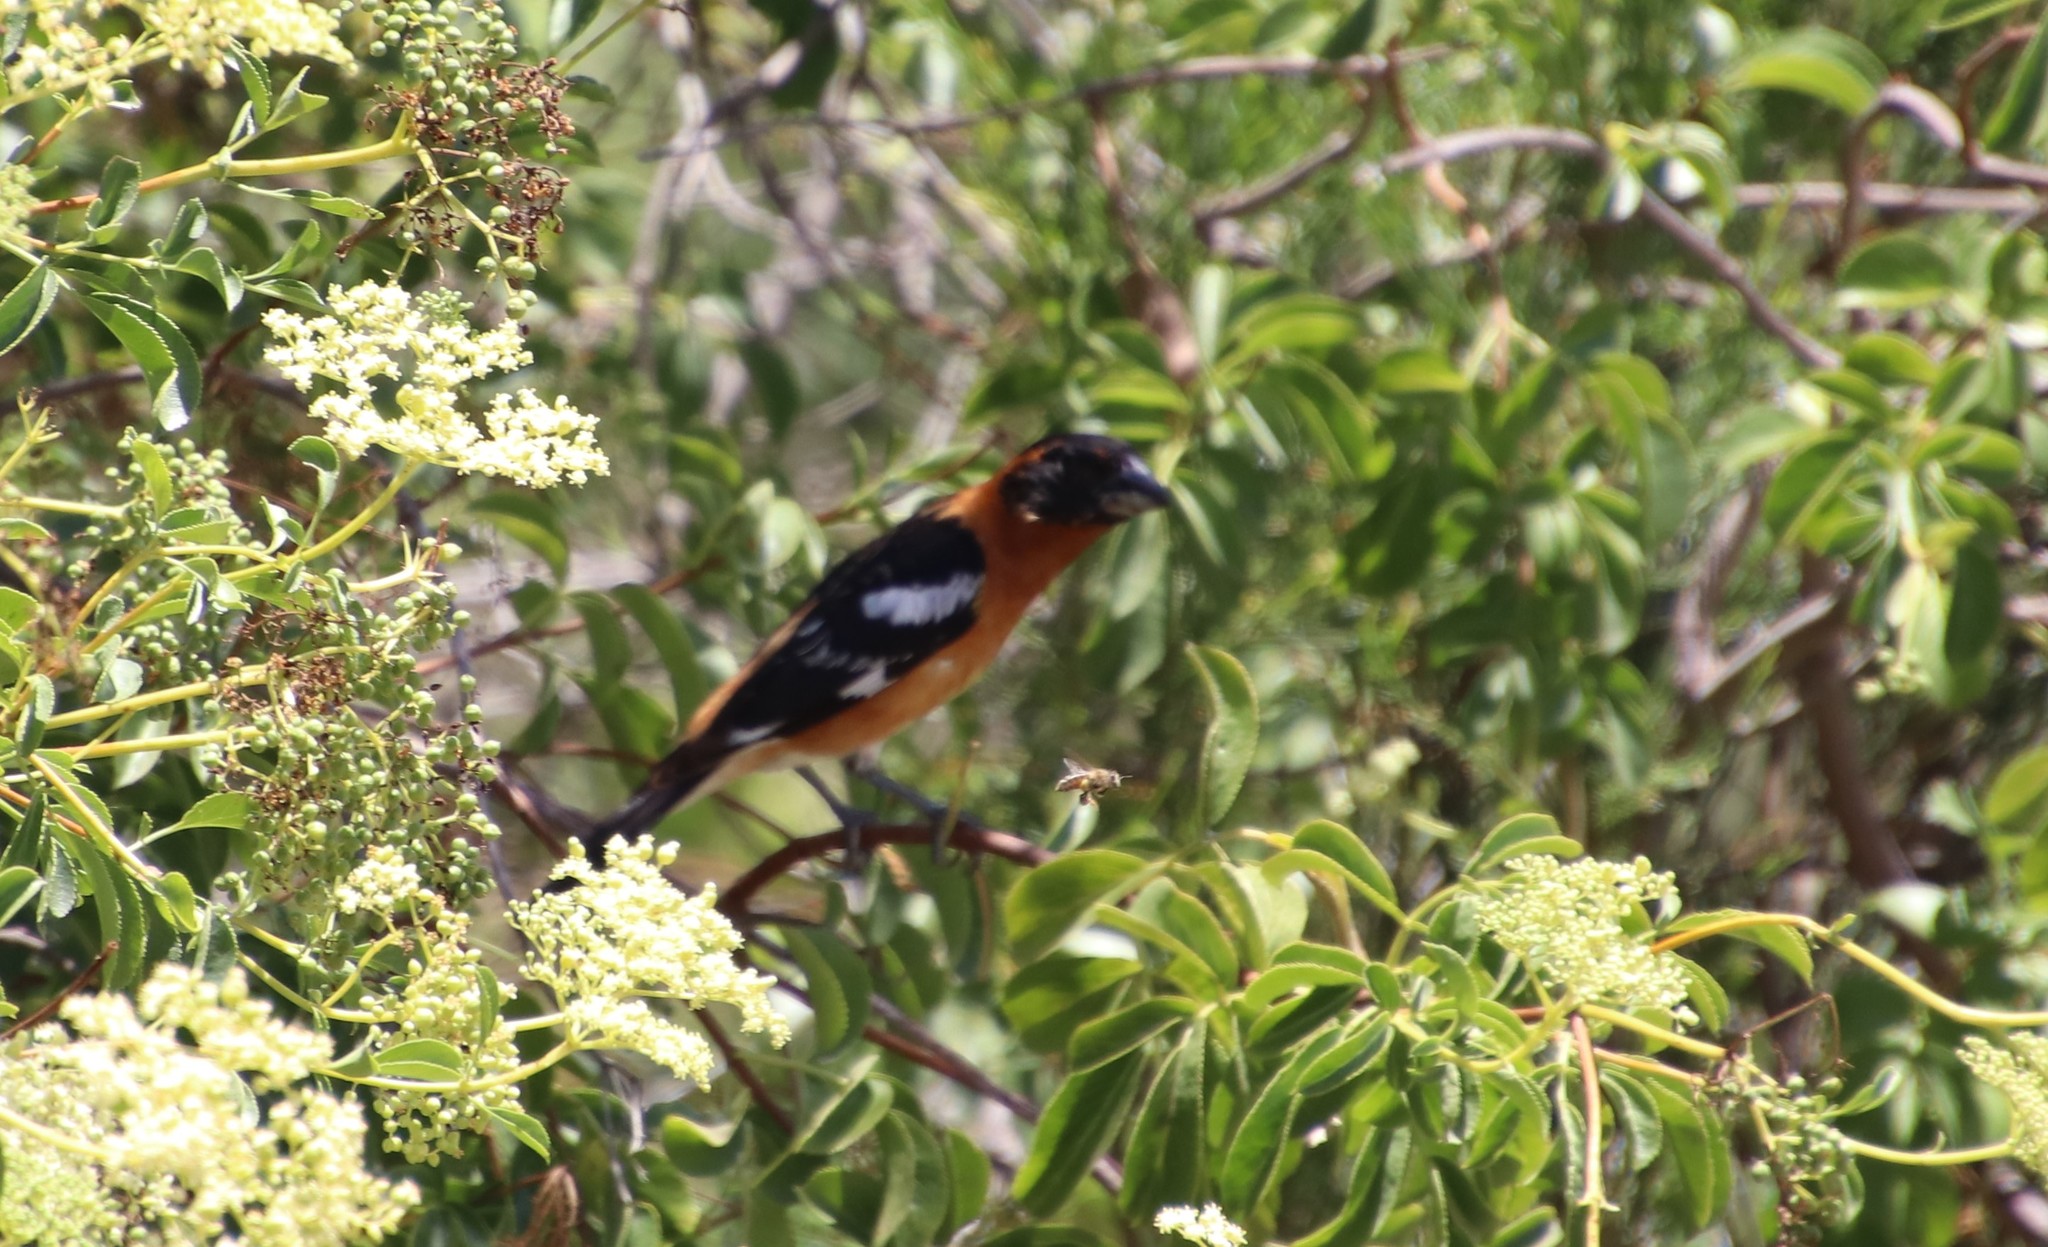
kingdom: Animalia
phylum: Chordata
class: Aves
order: Passeriformes
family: Cardinalidae
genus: Pheucticus
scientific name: Pheucticus melanocephalus
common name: Black-headed grosbeak
